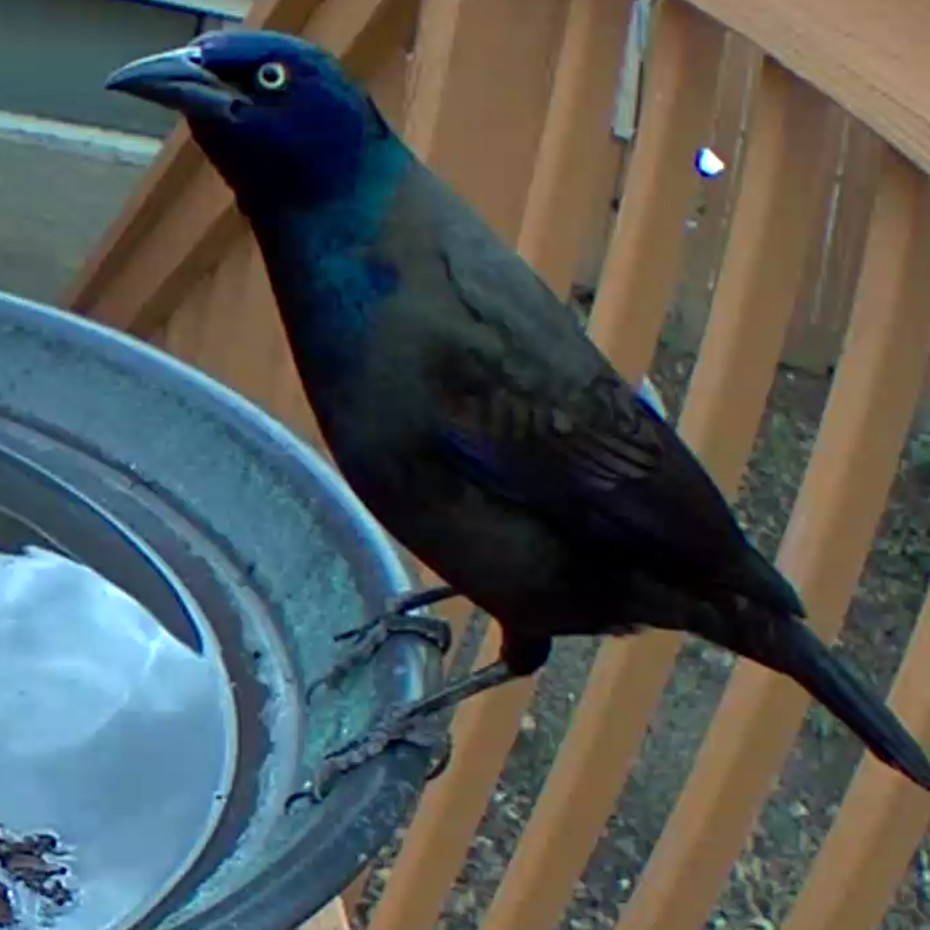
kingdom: Animalia
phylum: Chordata
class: Aves
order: Passeriformes
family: Icteridae
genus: Quiscalus
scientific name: Quiscalus quiscula
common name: Common grackle
